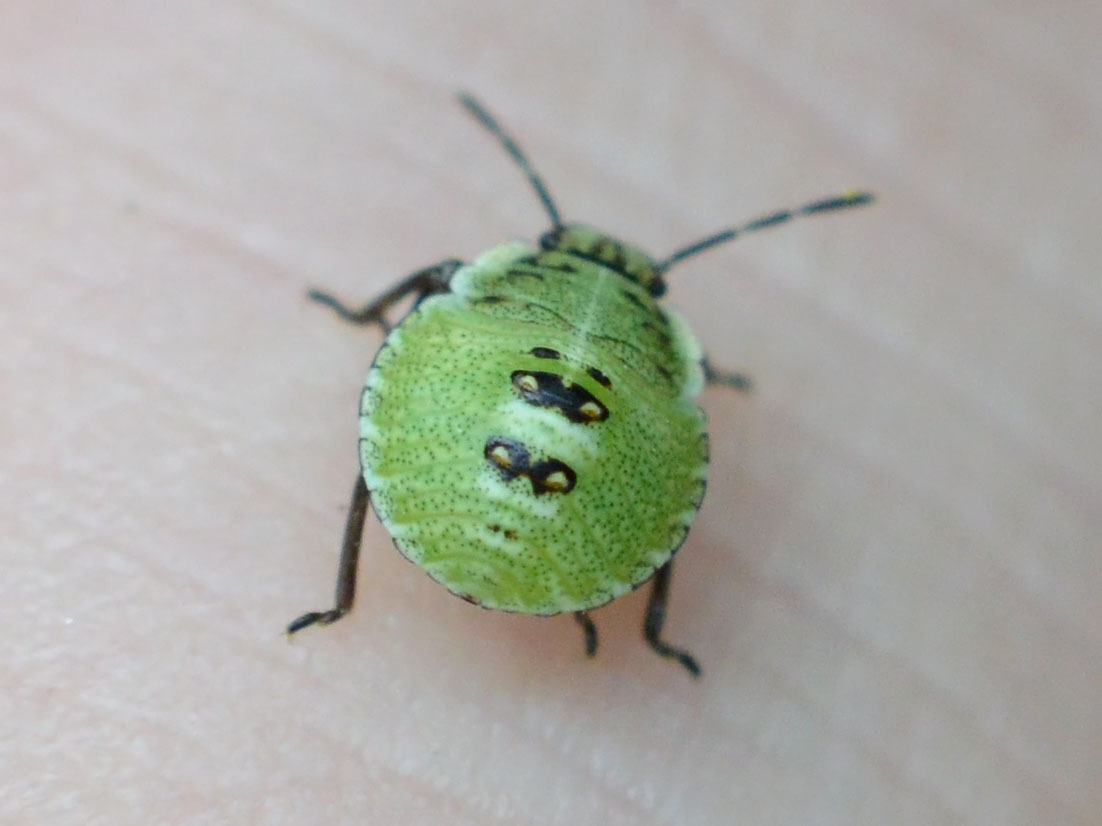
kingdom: Animalia
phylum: Arthropoda
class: Insecta
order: Hemiptera
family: Pentatomidae
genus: Palomena
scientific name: Palomena prasina
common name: Green shieldbug
